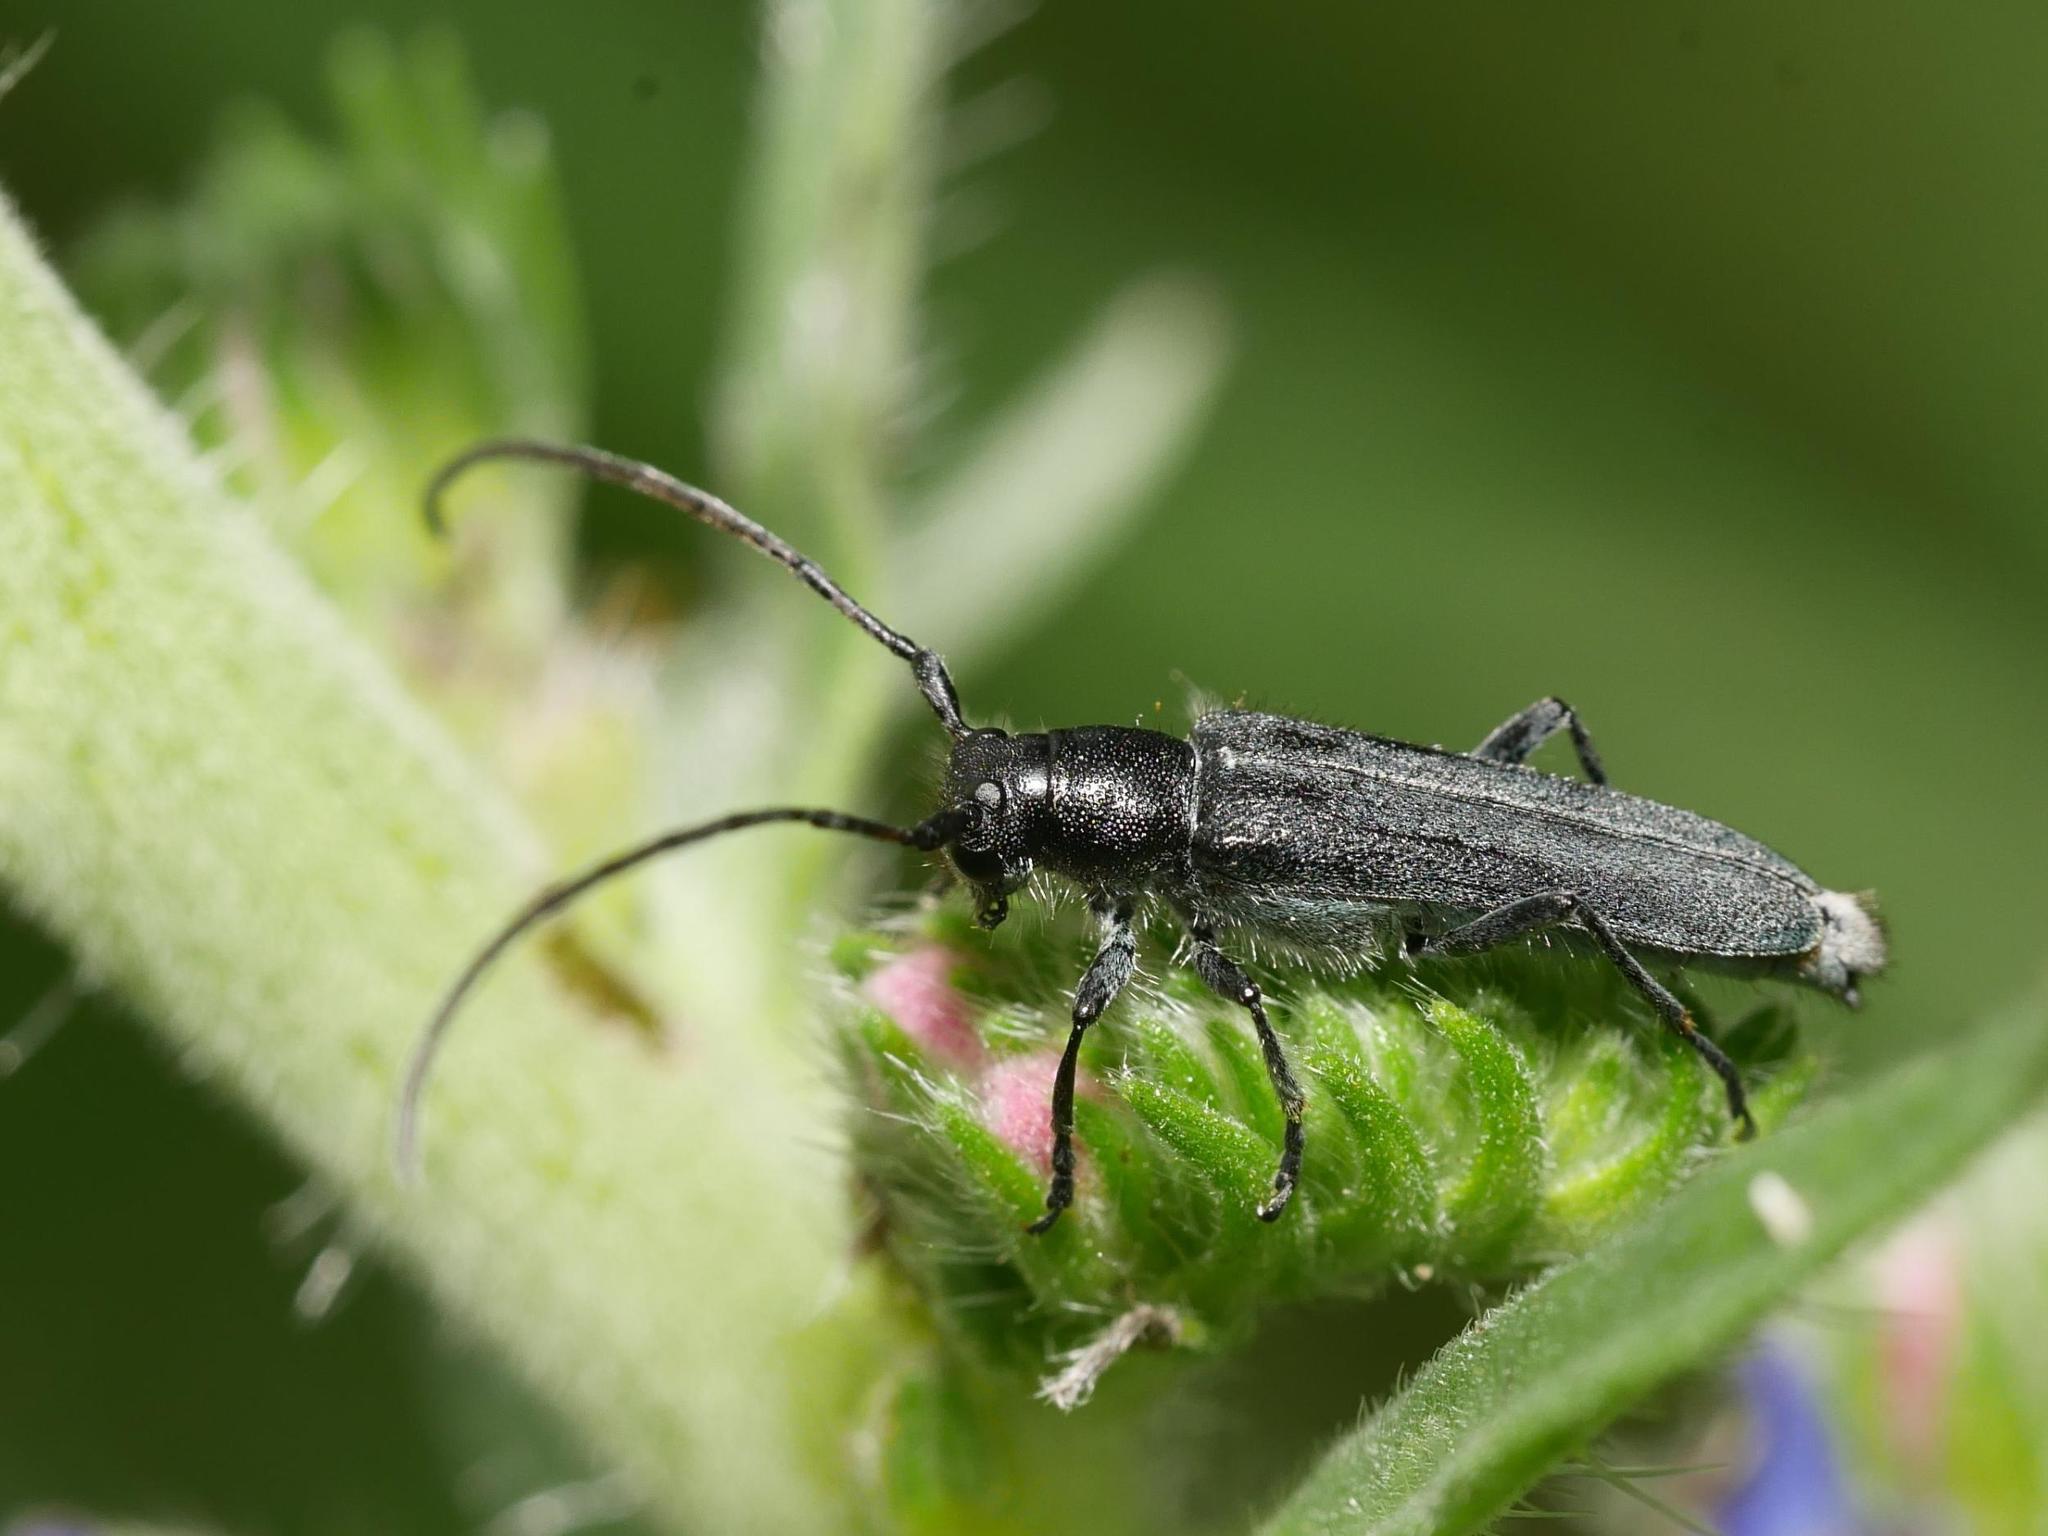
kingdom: Animalia
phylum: Arthropoda
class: Insecta
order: Coleoptera
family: Cerambycidae
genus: Phytoecia
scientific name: Phytoecia coerulescens
